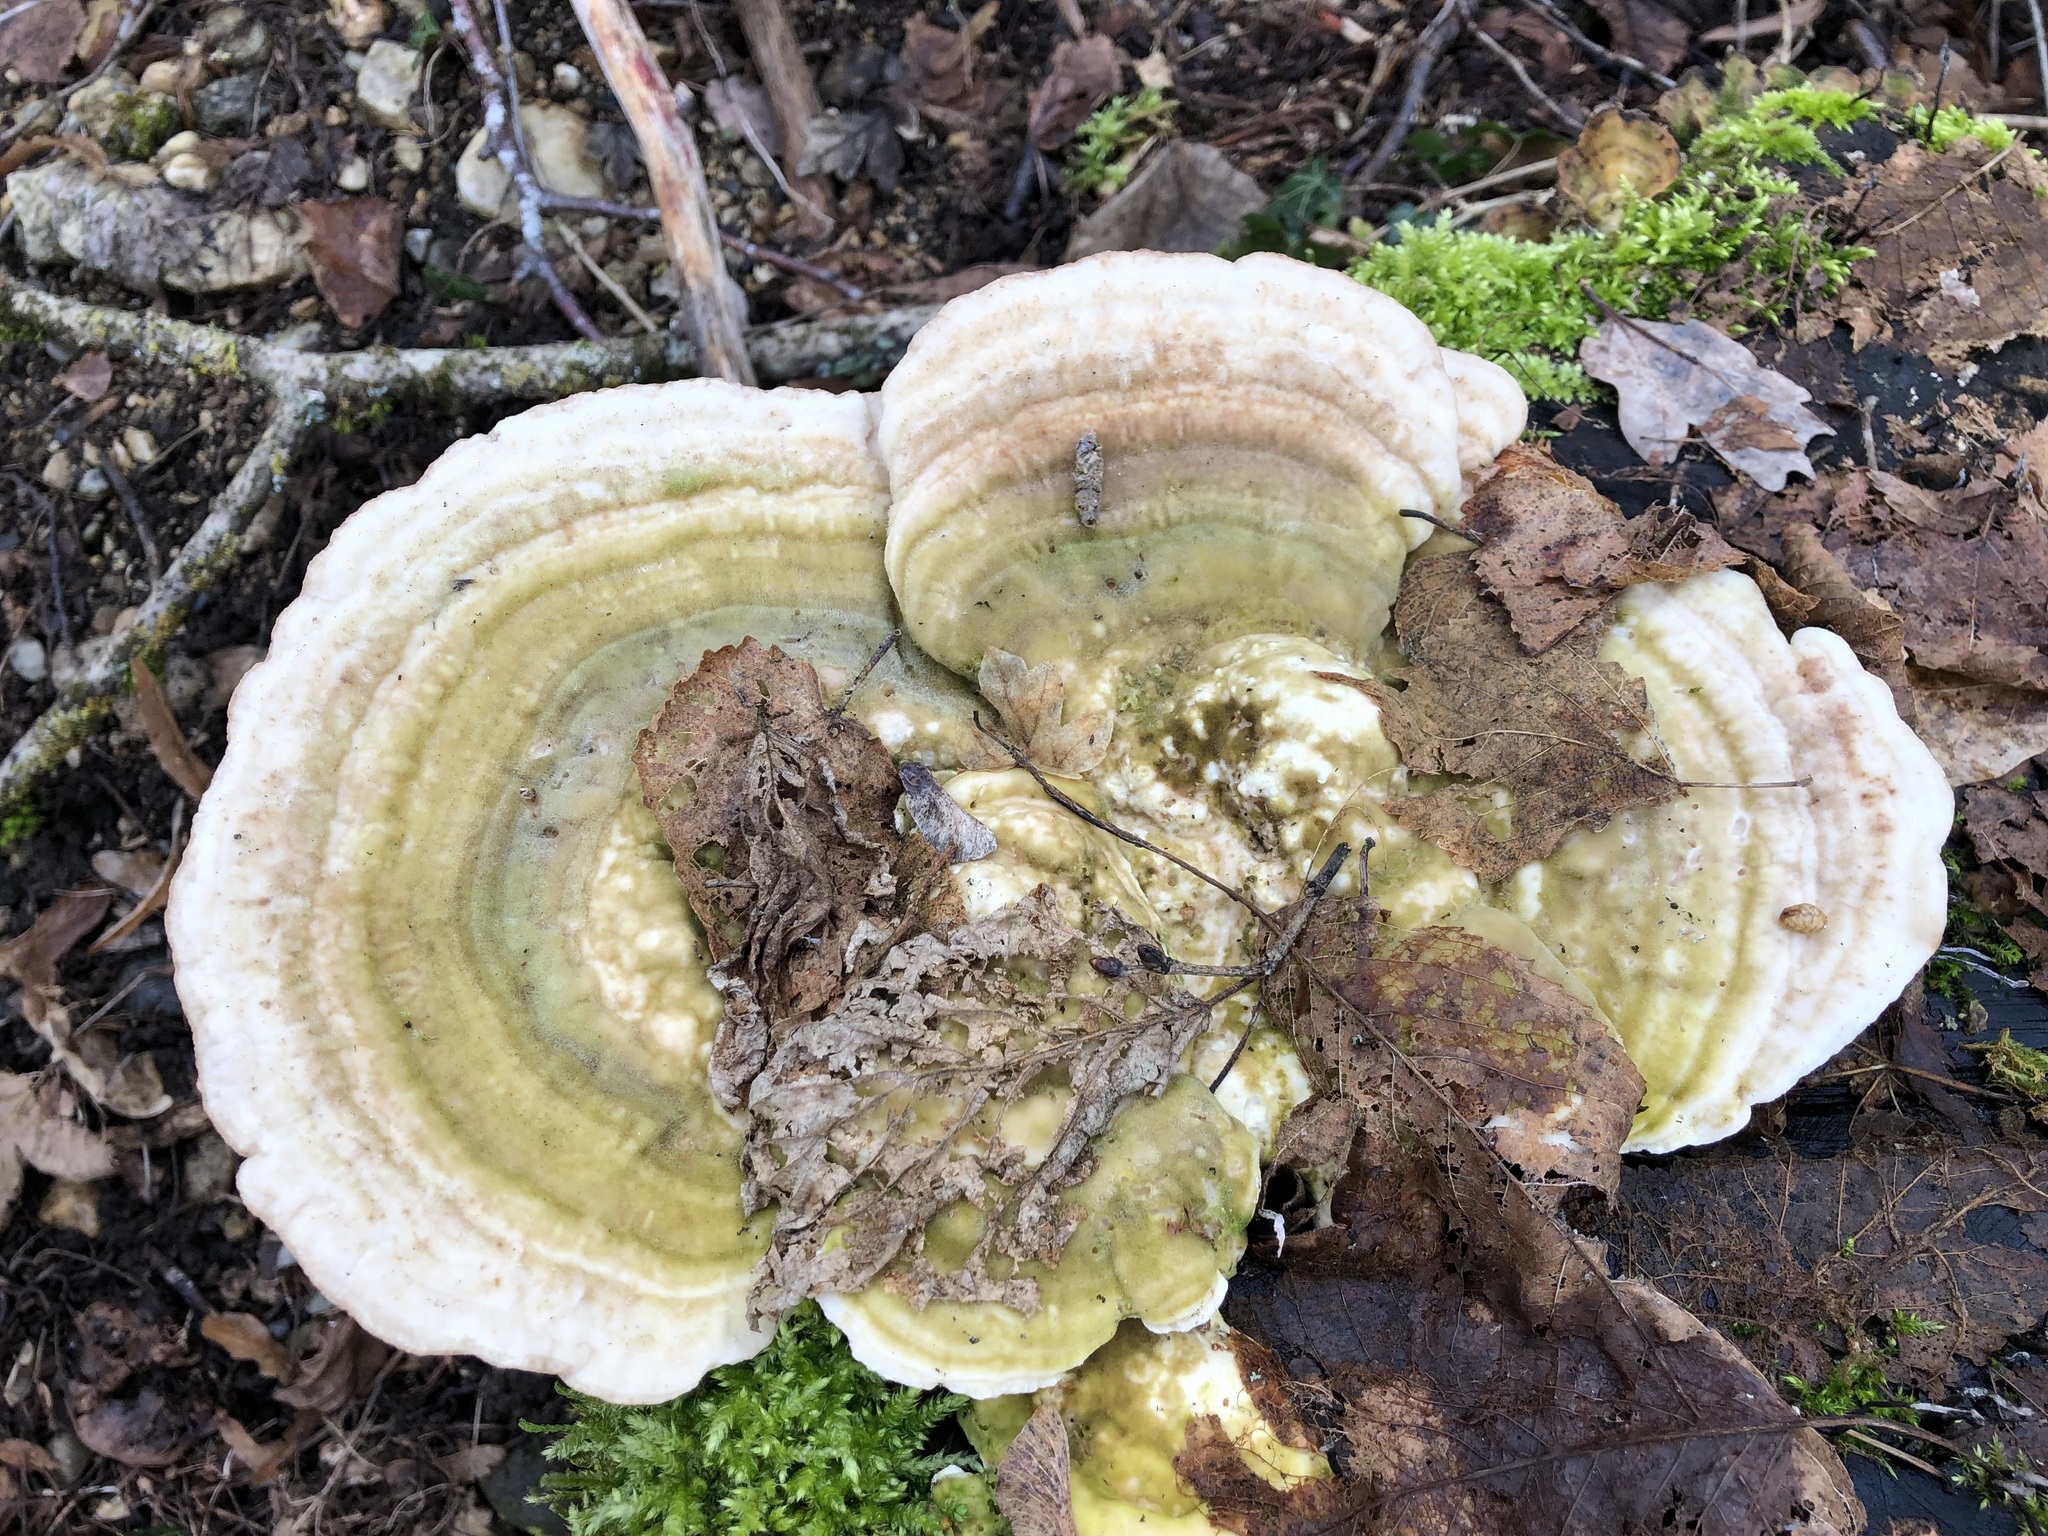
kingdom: Fungi
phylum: Basidiomycota
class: Agaricomycetes
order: Polyporales
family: Polyporaceae
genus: Lenzites
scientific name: Lenzites betulinus
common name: Birch mazegill
